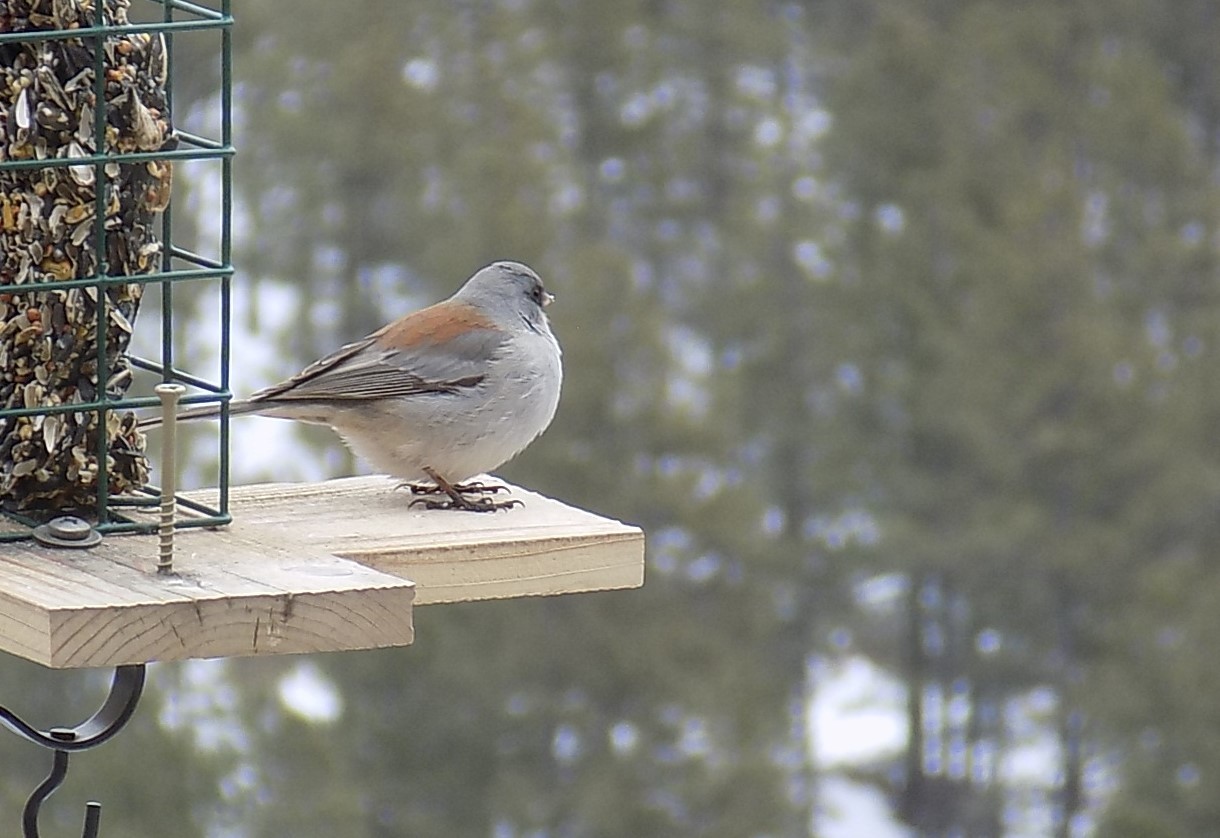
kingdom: Animalia
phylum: Chordata
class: Aves
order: Passeriformes
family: Passerellidae
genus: Junco
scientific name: Junco hyemalis
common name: Dark-eyed junco
